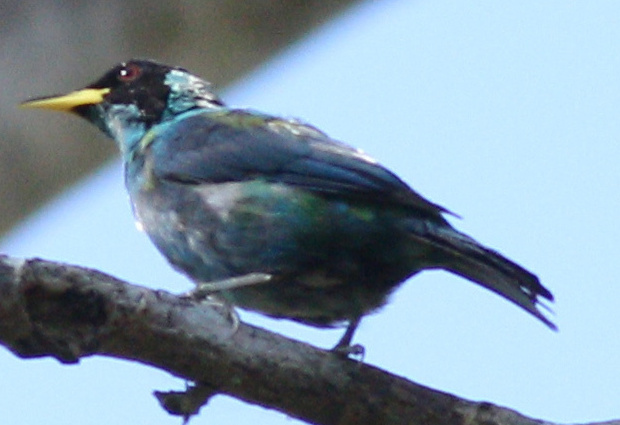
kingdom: Animalia
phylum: Chordata
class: Aves
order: Passeriformes
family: Thraupidae
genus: Chlorophanes
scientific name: Chlorophanes spiza
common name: Green honeycreeper
